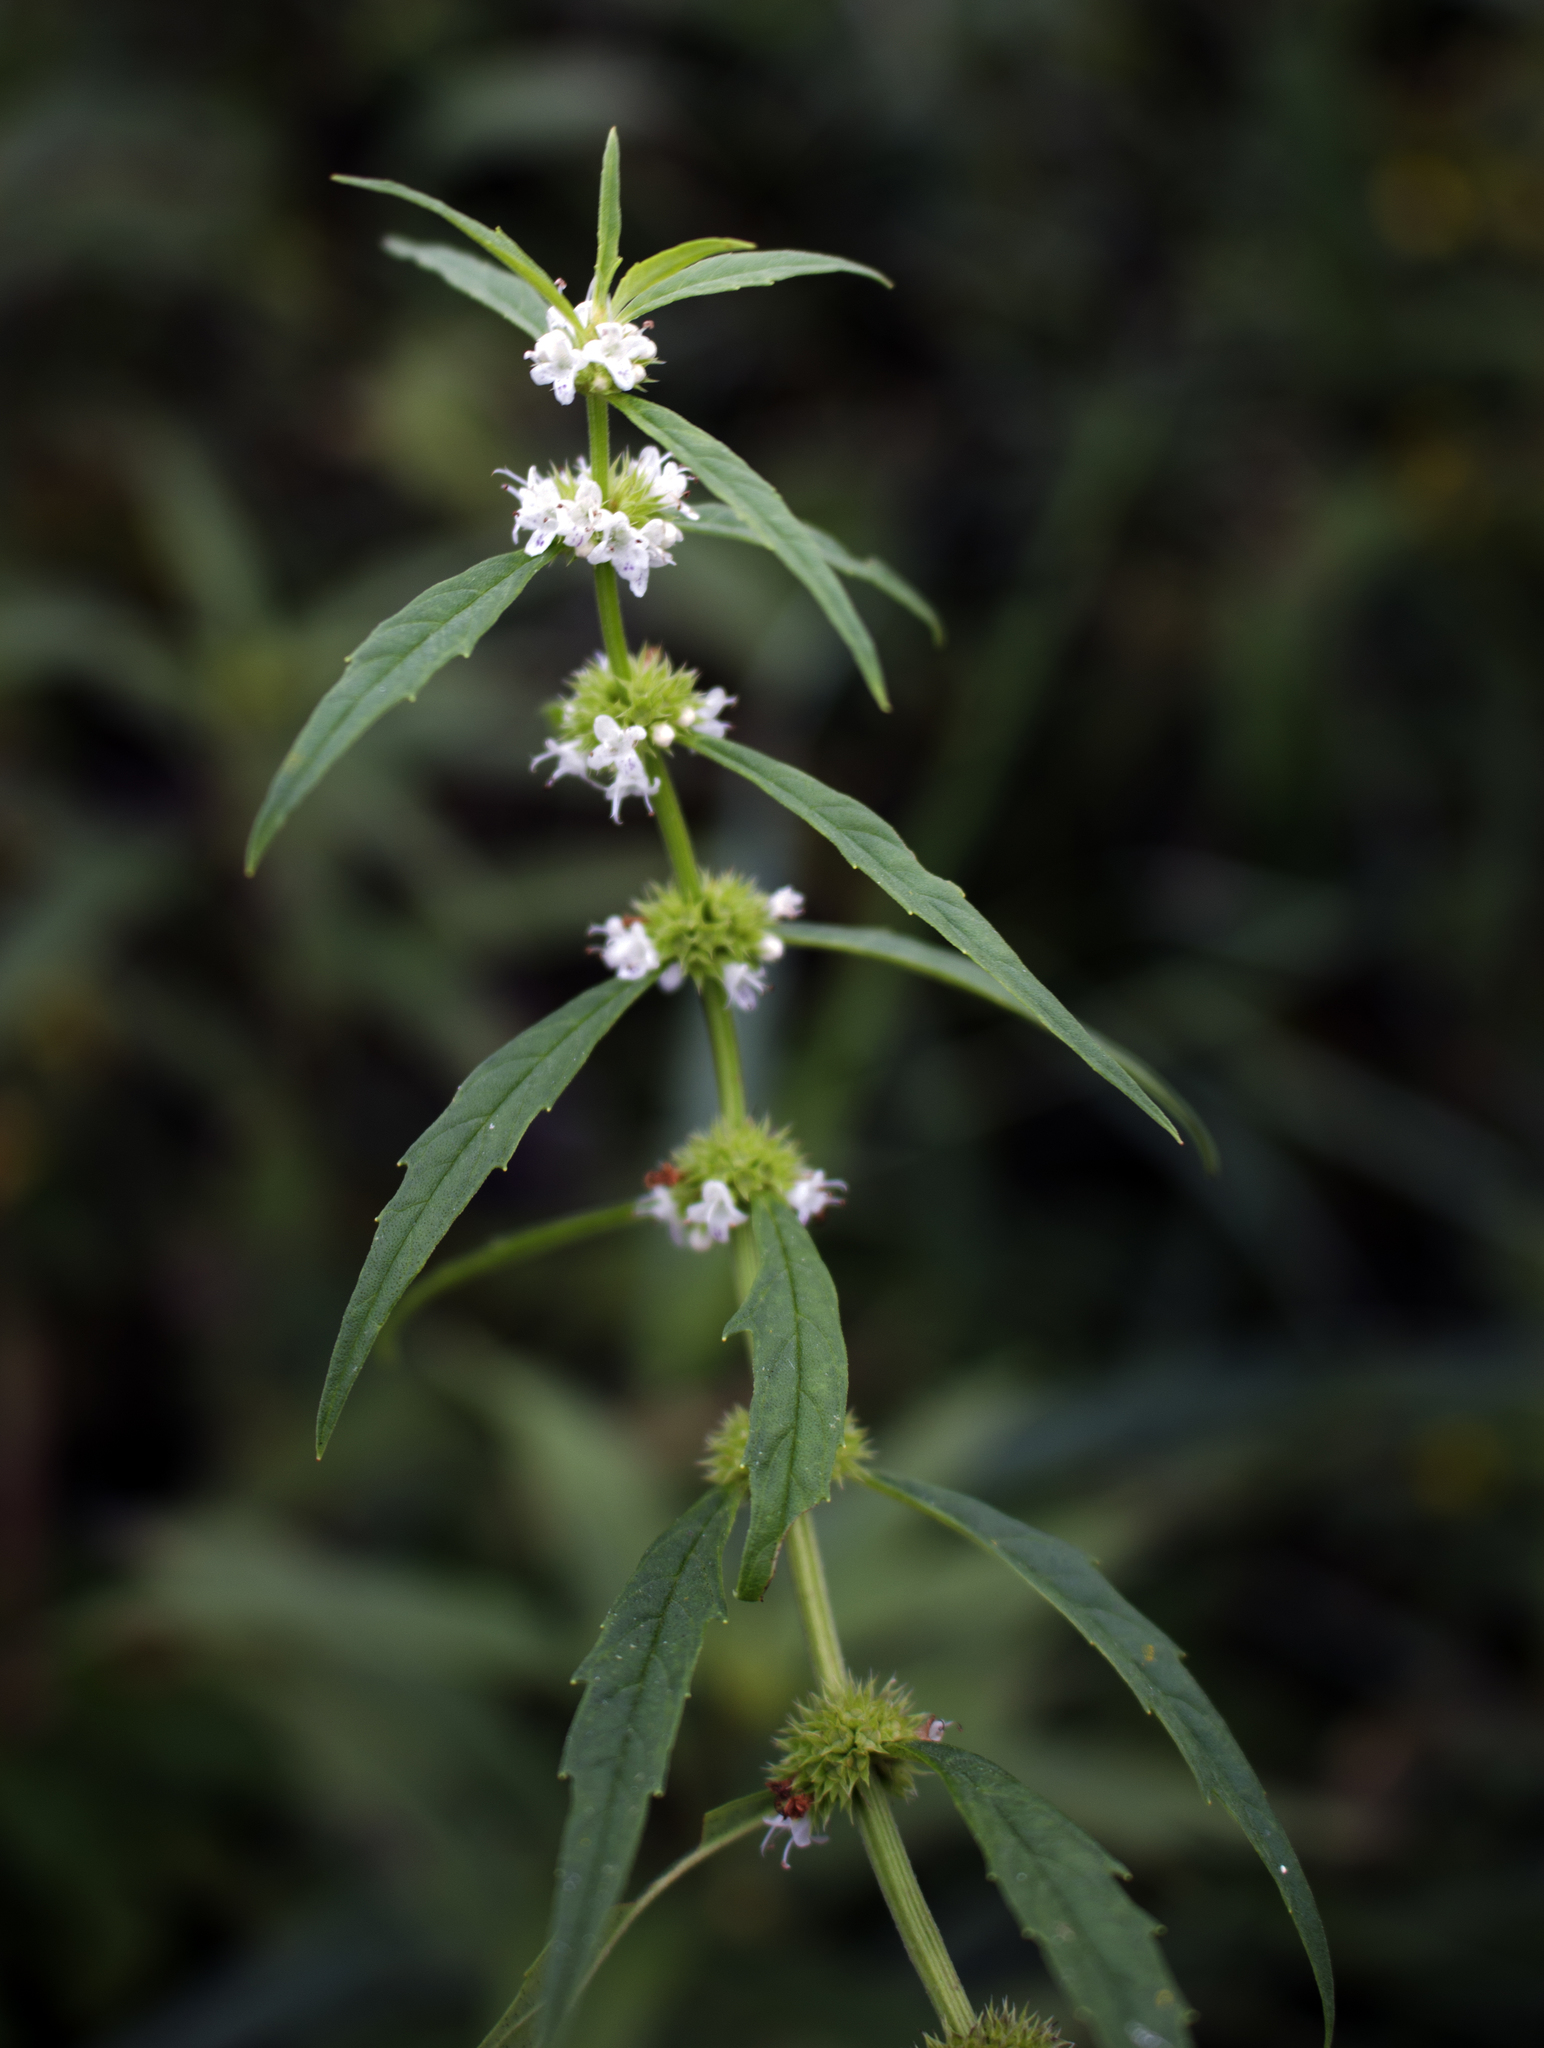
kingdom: Plantae
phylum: Tracheophyta
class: Magnoliopsida
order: Lamiales
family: Lamiaceae
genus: Lycopus
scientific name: Lycopus americanus
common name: American bugleweed
